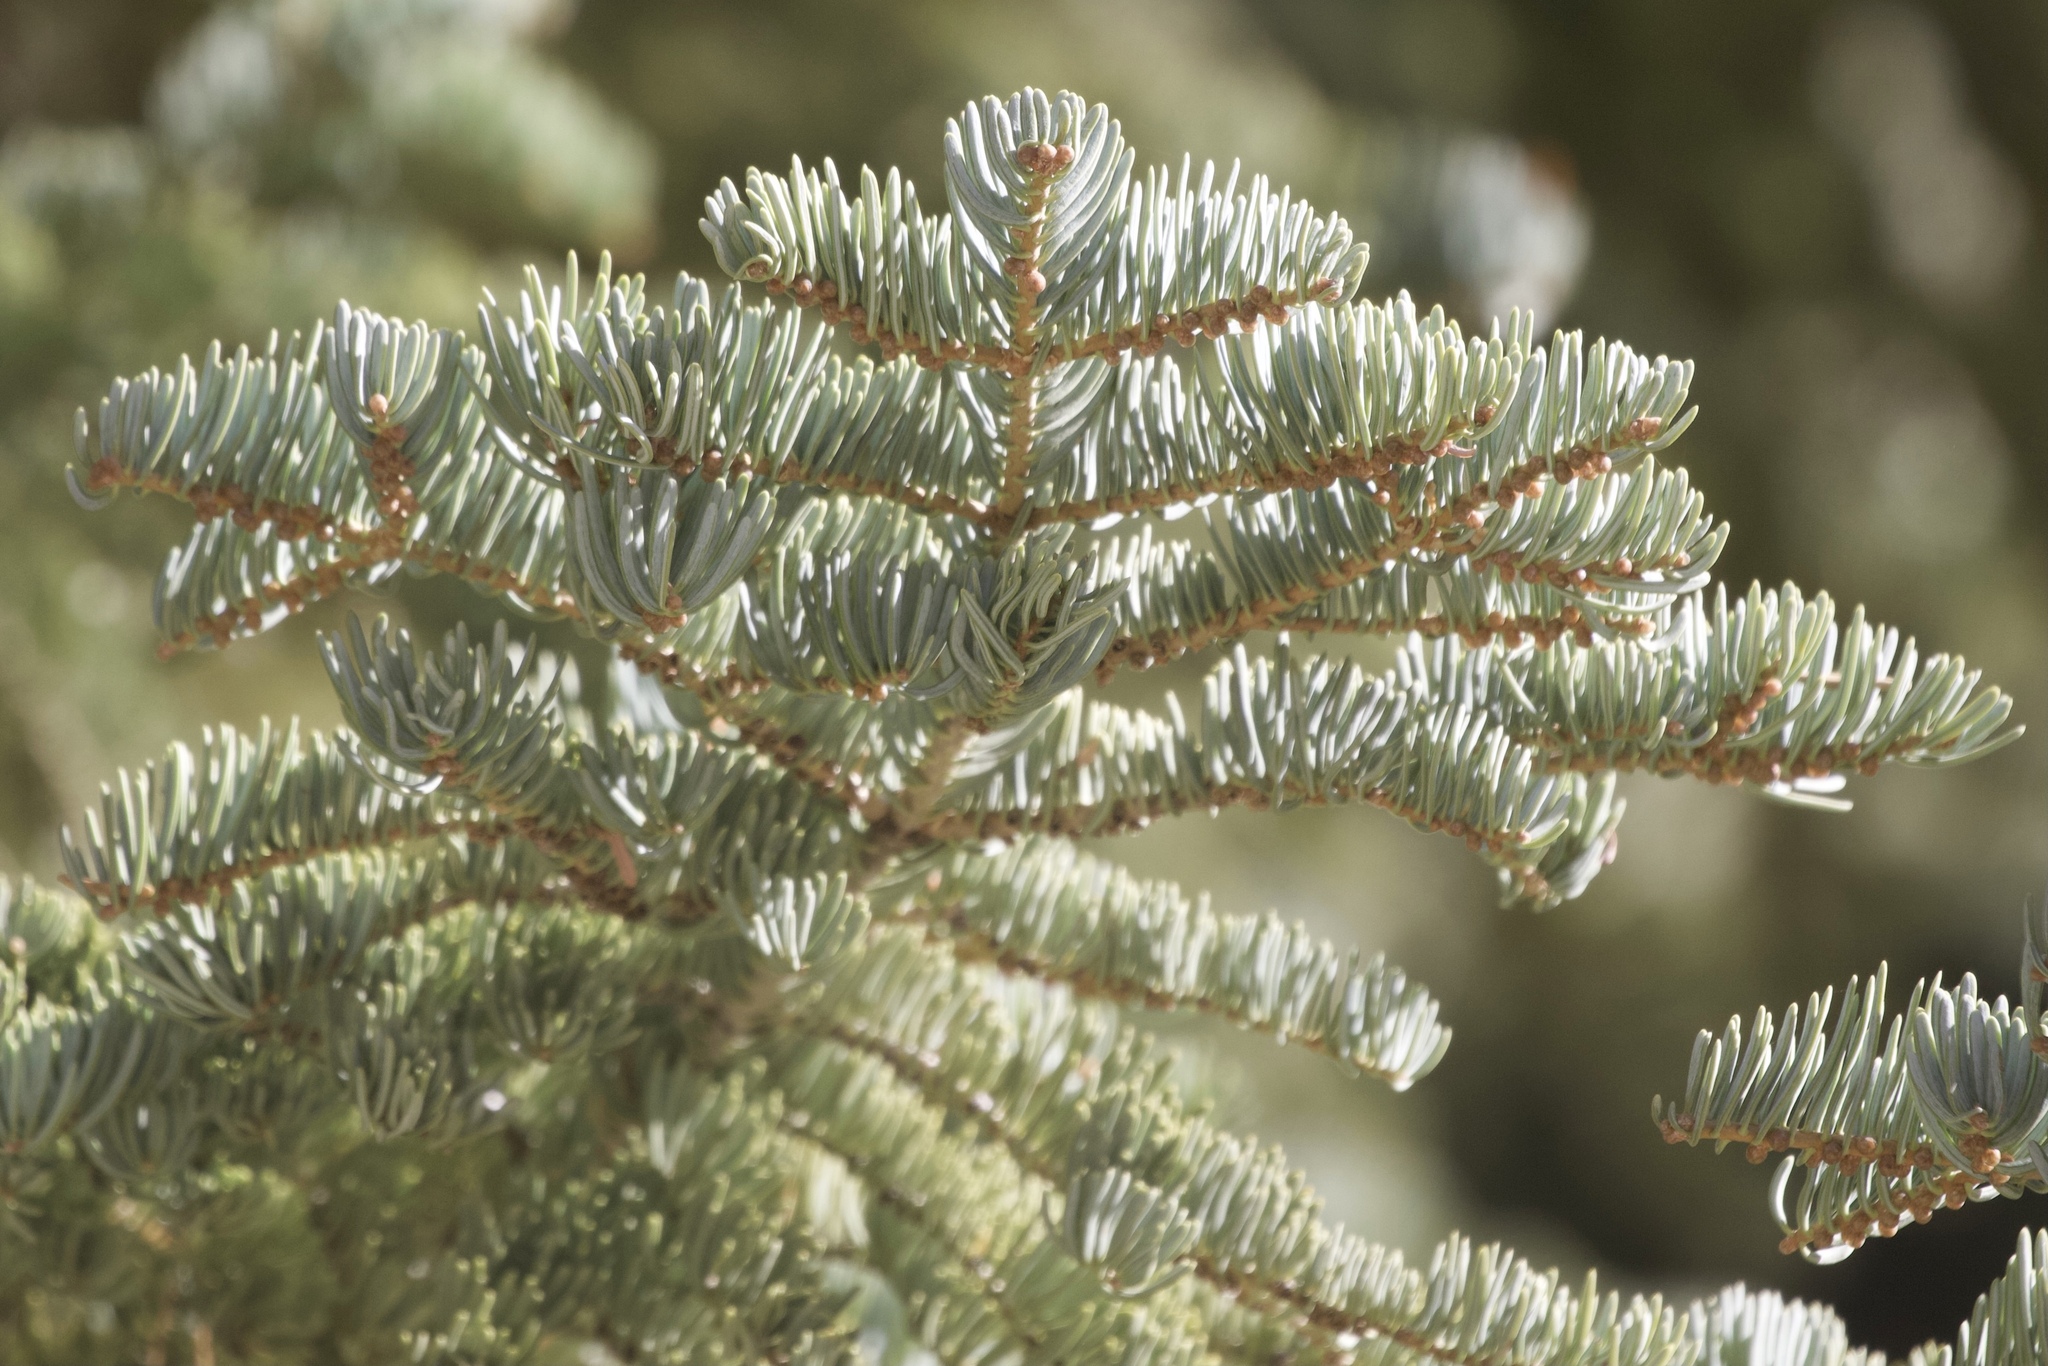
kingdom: Plantae
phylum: Tracheophyta
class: Pinopsida
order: Pinales
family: Pinaceae
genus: Abies
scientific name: Abies concolor
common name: Colorado fir
